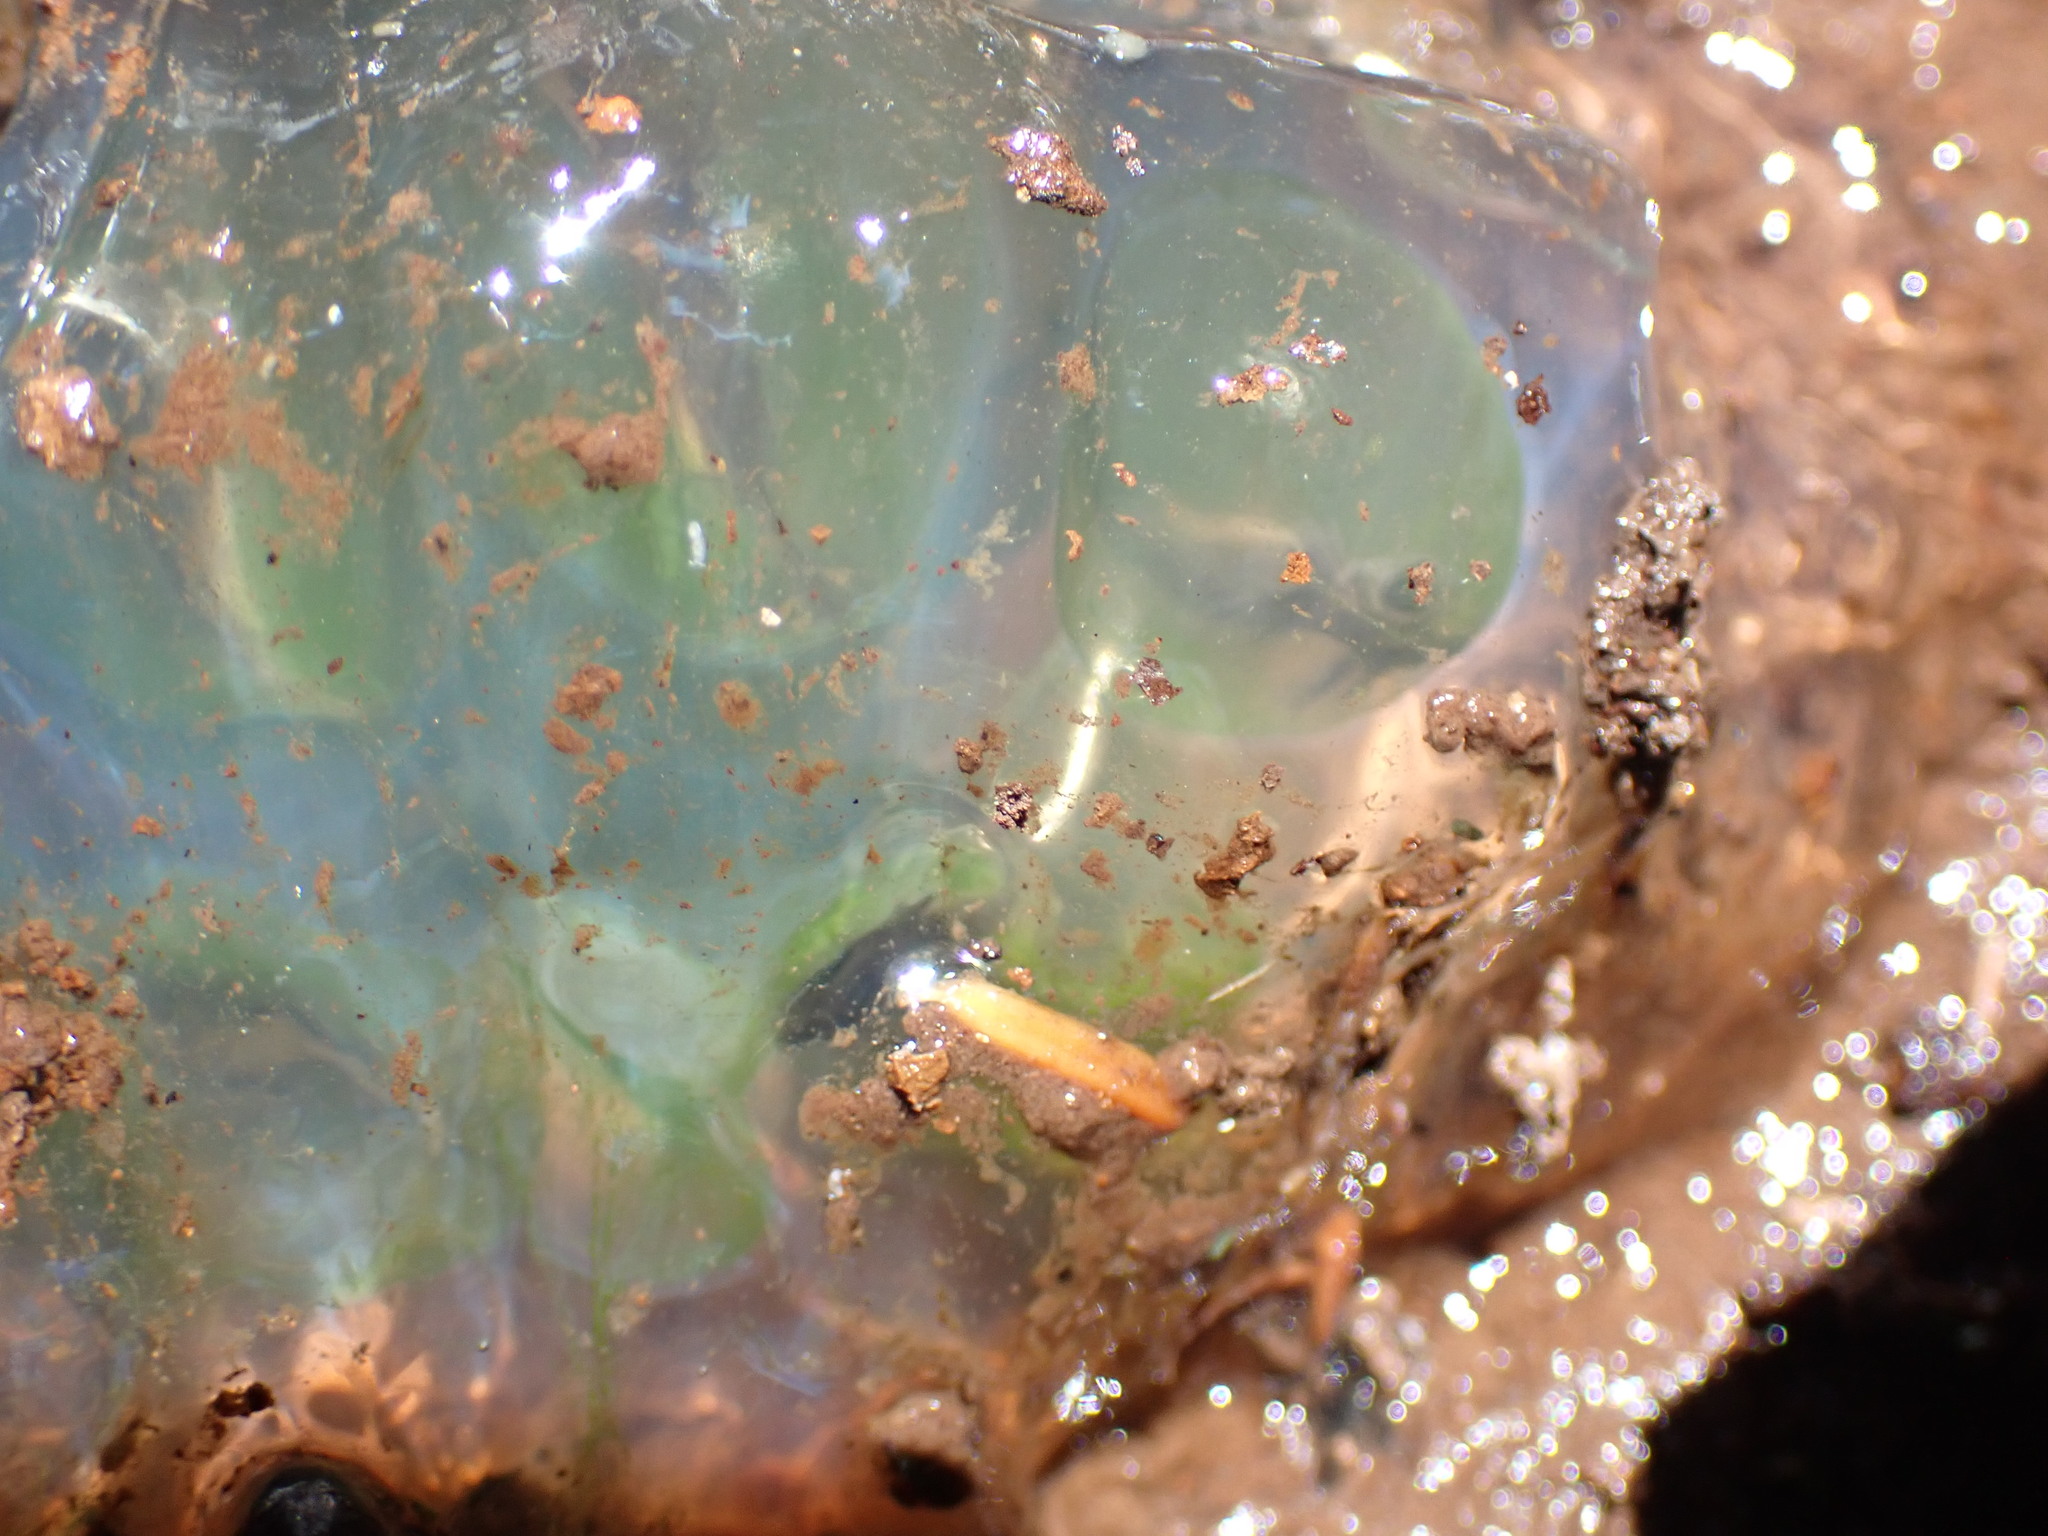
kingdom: Animalia
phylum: Chordata
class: Amphibia
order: Caudata
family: Ambystomatidae
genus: Ambystoma
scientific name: Ambystoma gracile
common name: Northwestern salamander
